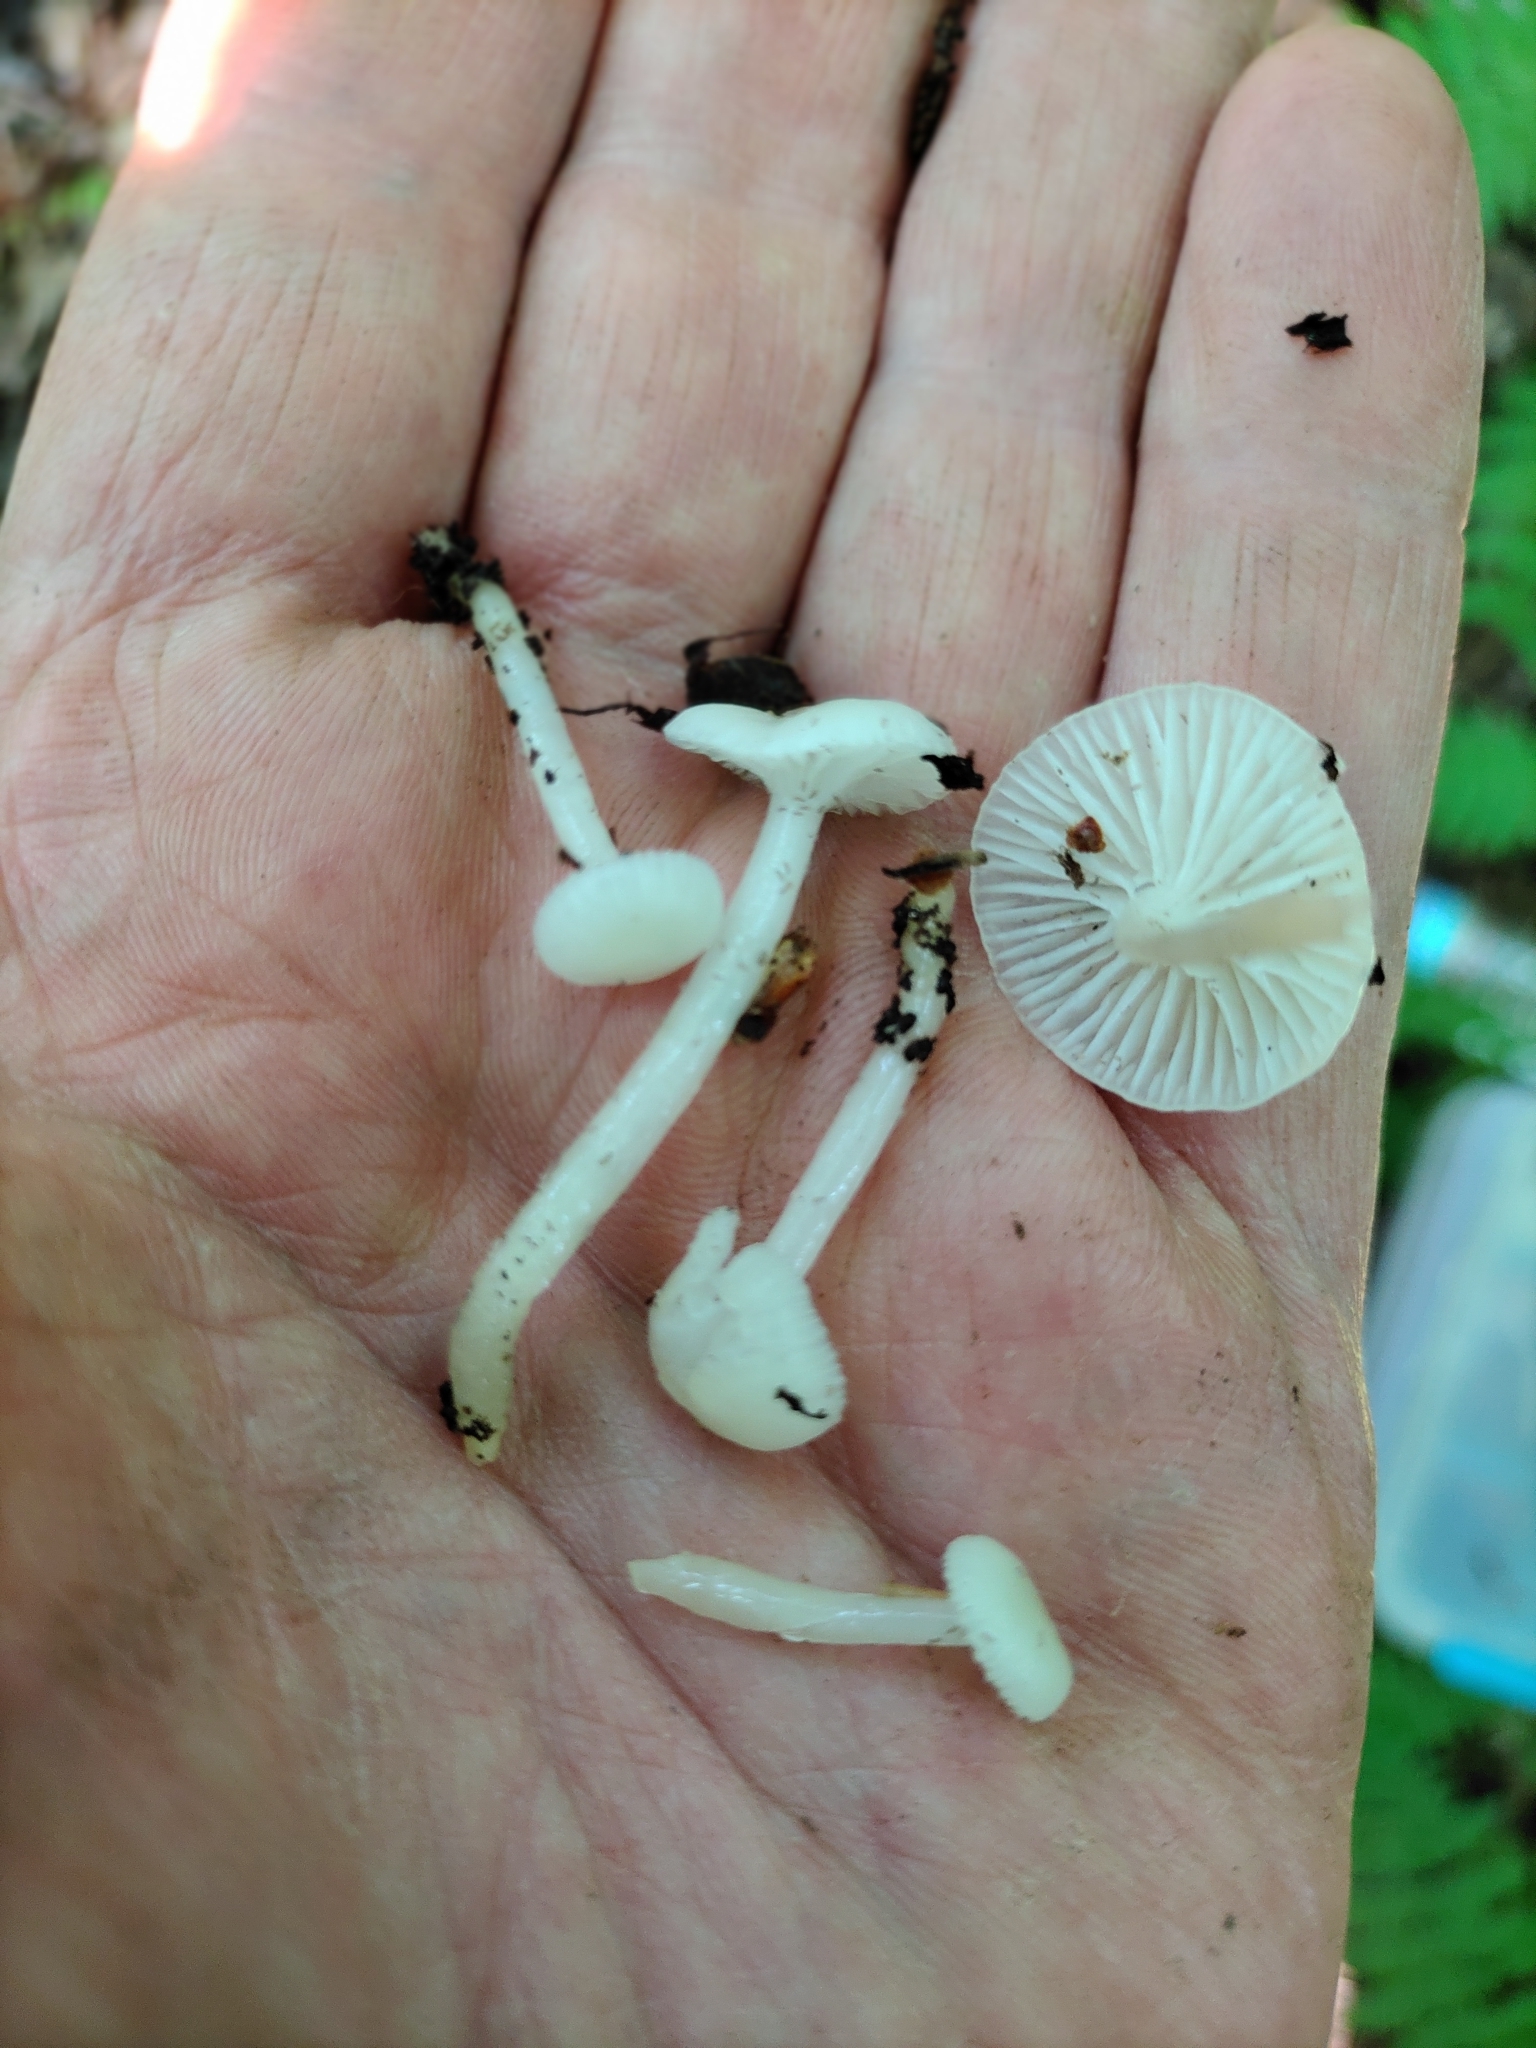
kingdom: Fungi
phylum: Basidiomycota
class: Agaricomycetes
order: Agaricales
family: Hygrophoraceae
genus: Gliophorus
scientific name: Gliophorus laetus
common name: Heath waxcap
